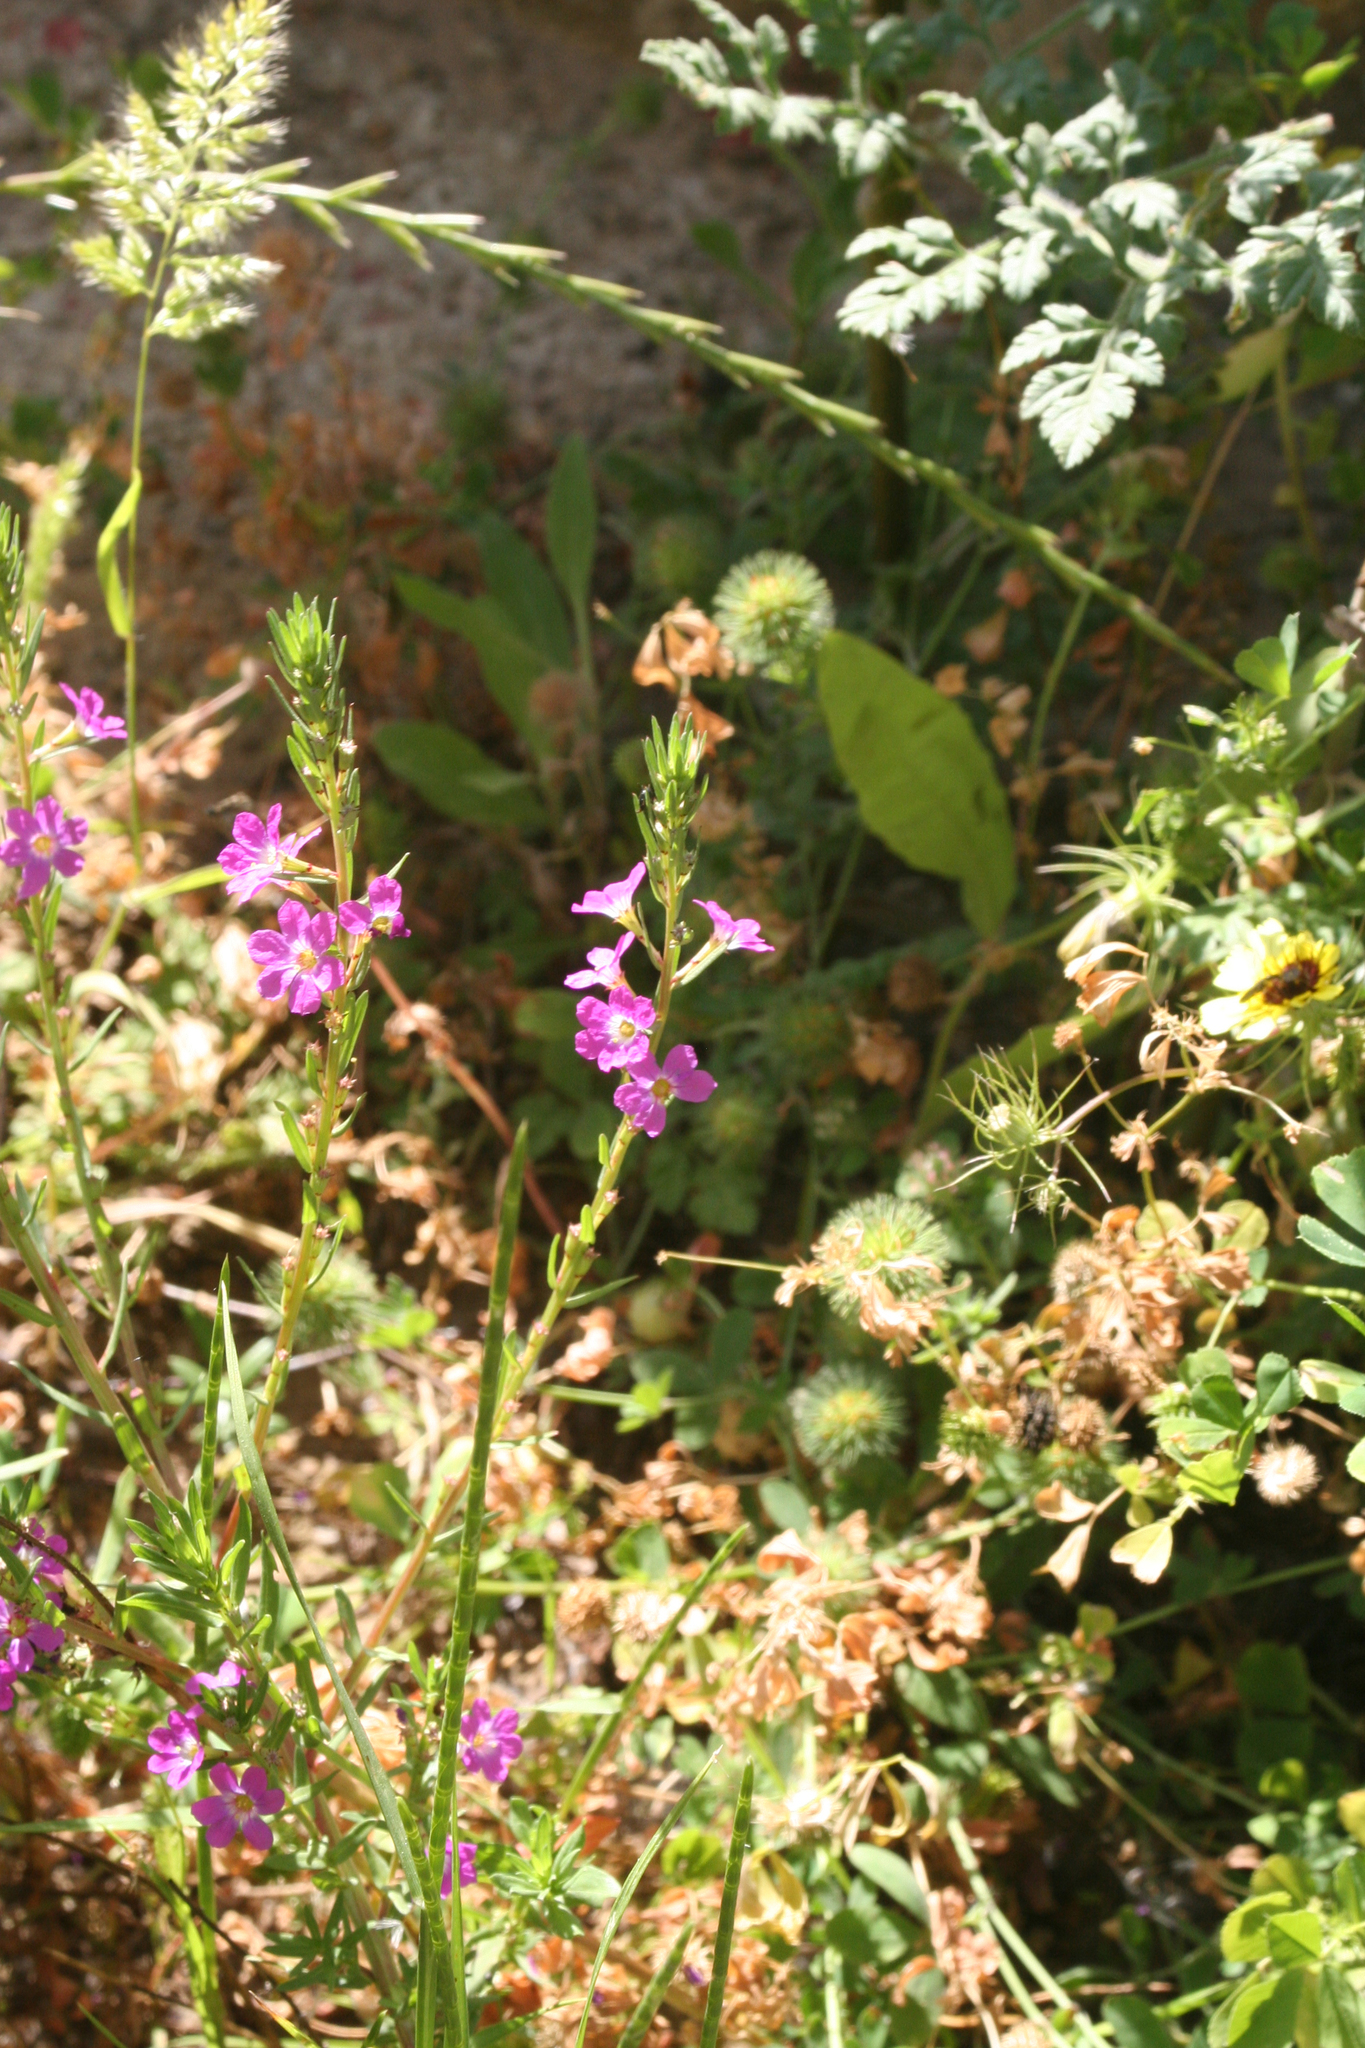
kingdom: Plantae
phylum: Tracheophyta
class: Magnoliopsida
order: Myrtales
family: Lythraceae
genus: Lythrum
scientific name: Lythrum junceum
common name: False grass-poly
